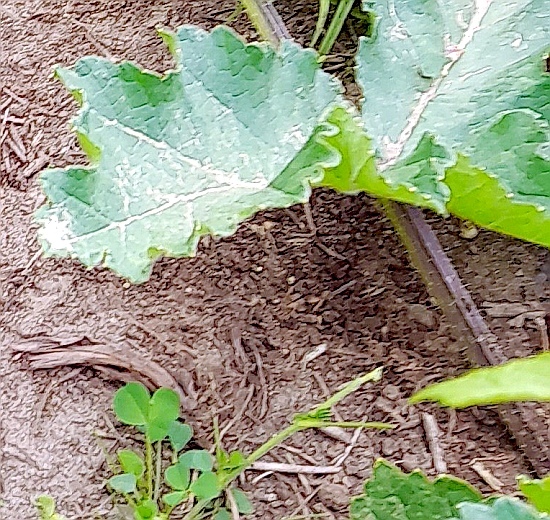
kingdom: Plantae
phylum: Tracheophyta
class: Magnoliopsida
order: Apiales
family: Apiaceae
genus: Heracleum
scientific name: Heracleum sphondylium
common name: Hogweed
